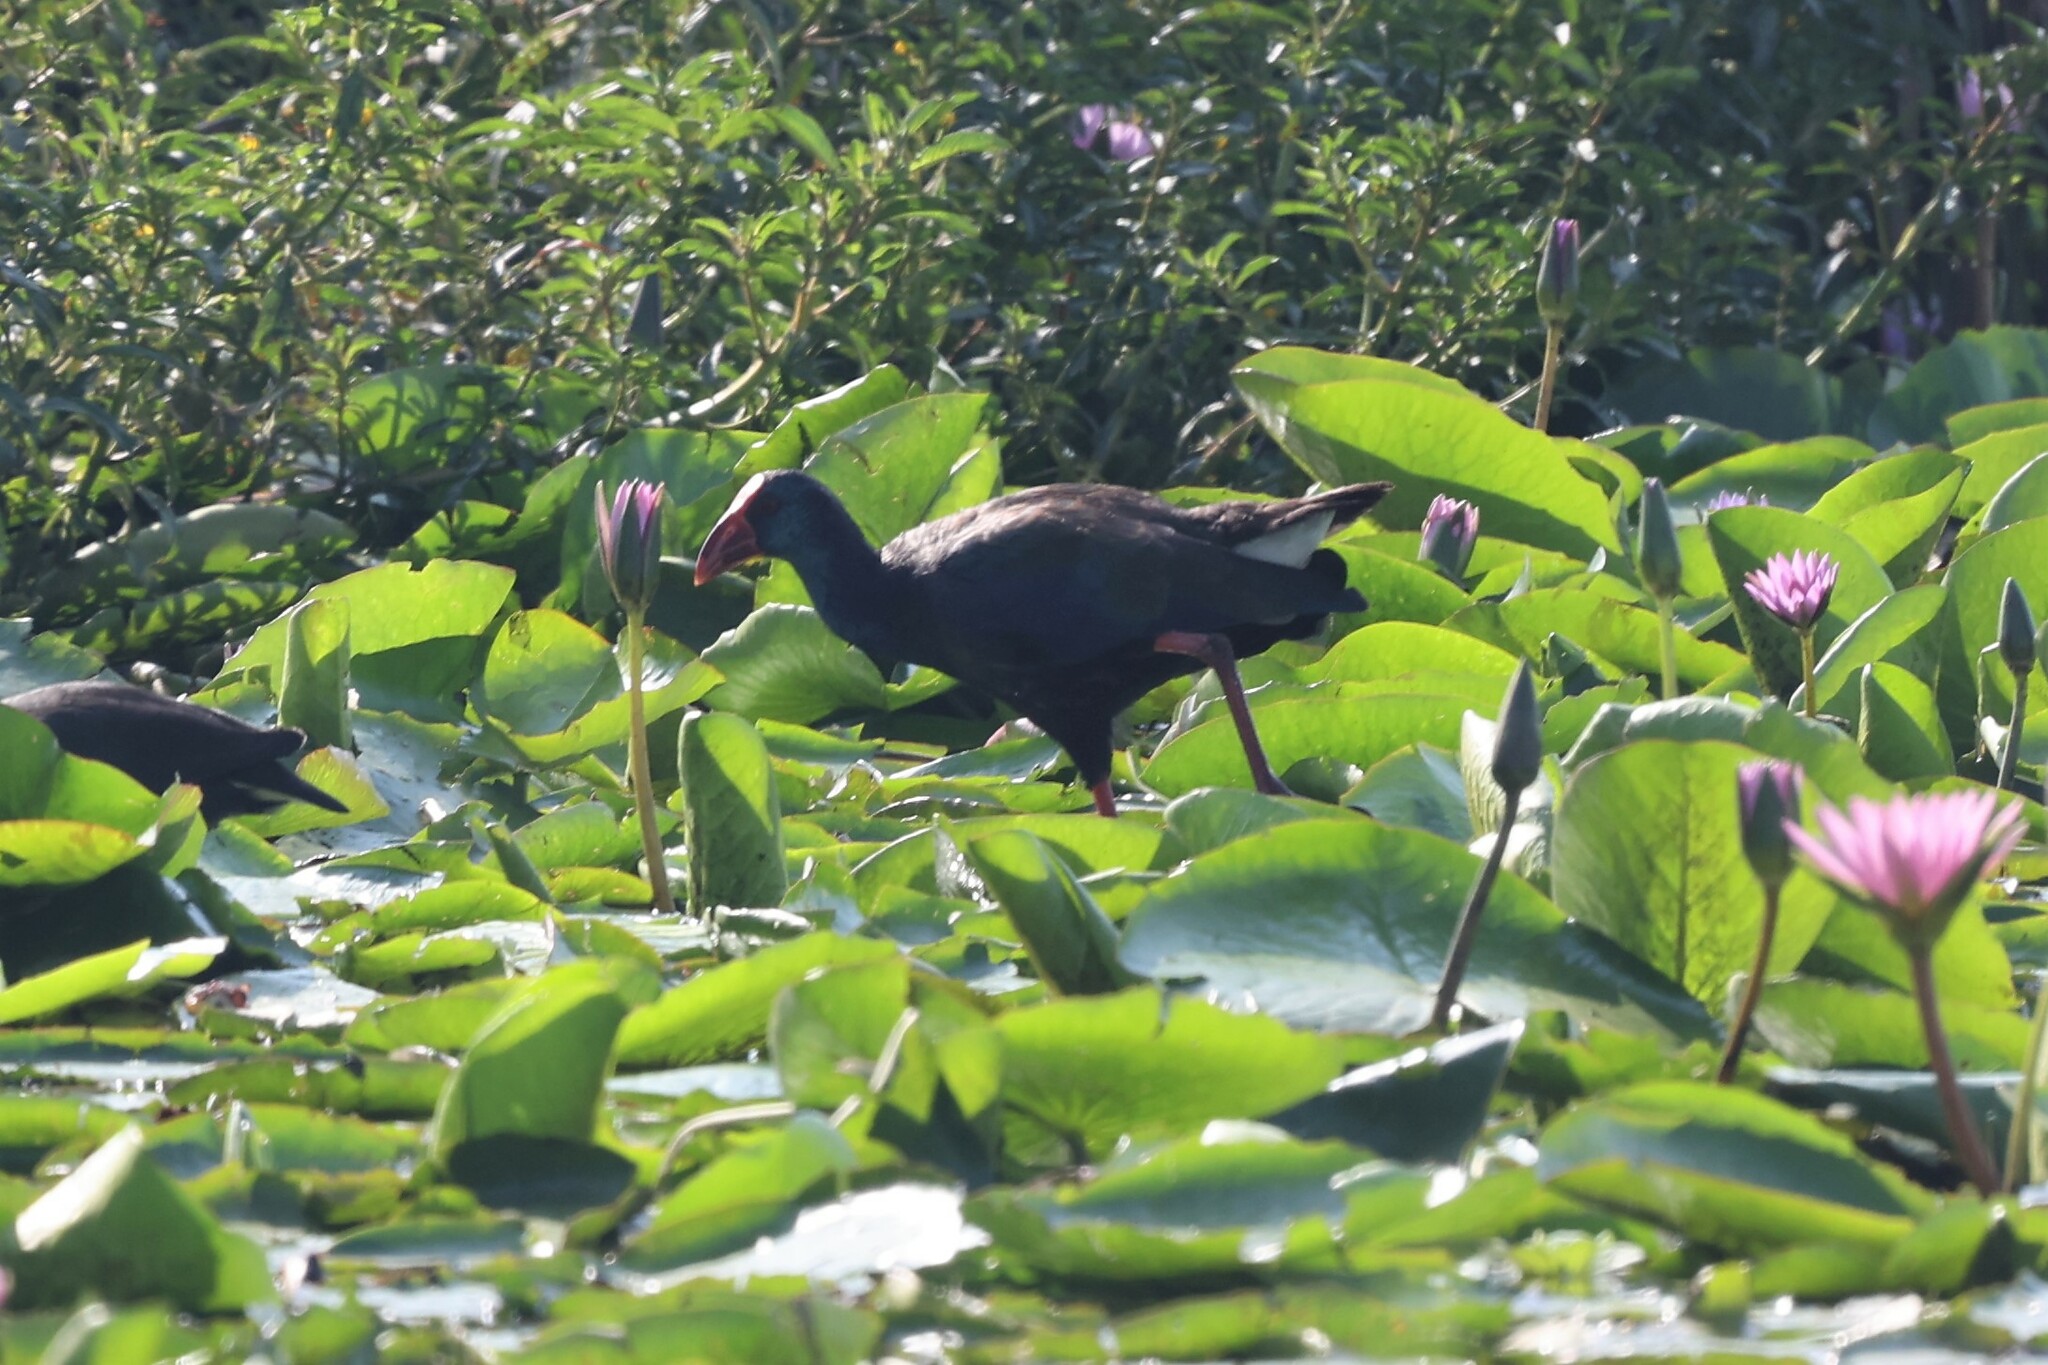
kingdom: Animalia
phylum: Chordata
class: Aves
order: Gruiformes
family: Rallidae
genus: Porphyrio
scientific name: Porphyrio porphyrio
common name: Purple swamphen
